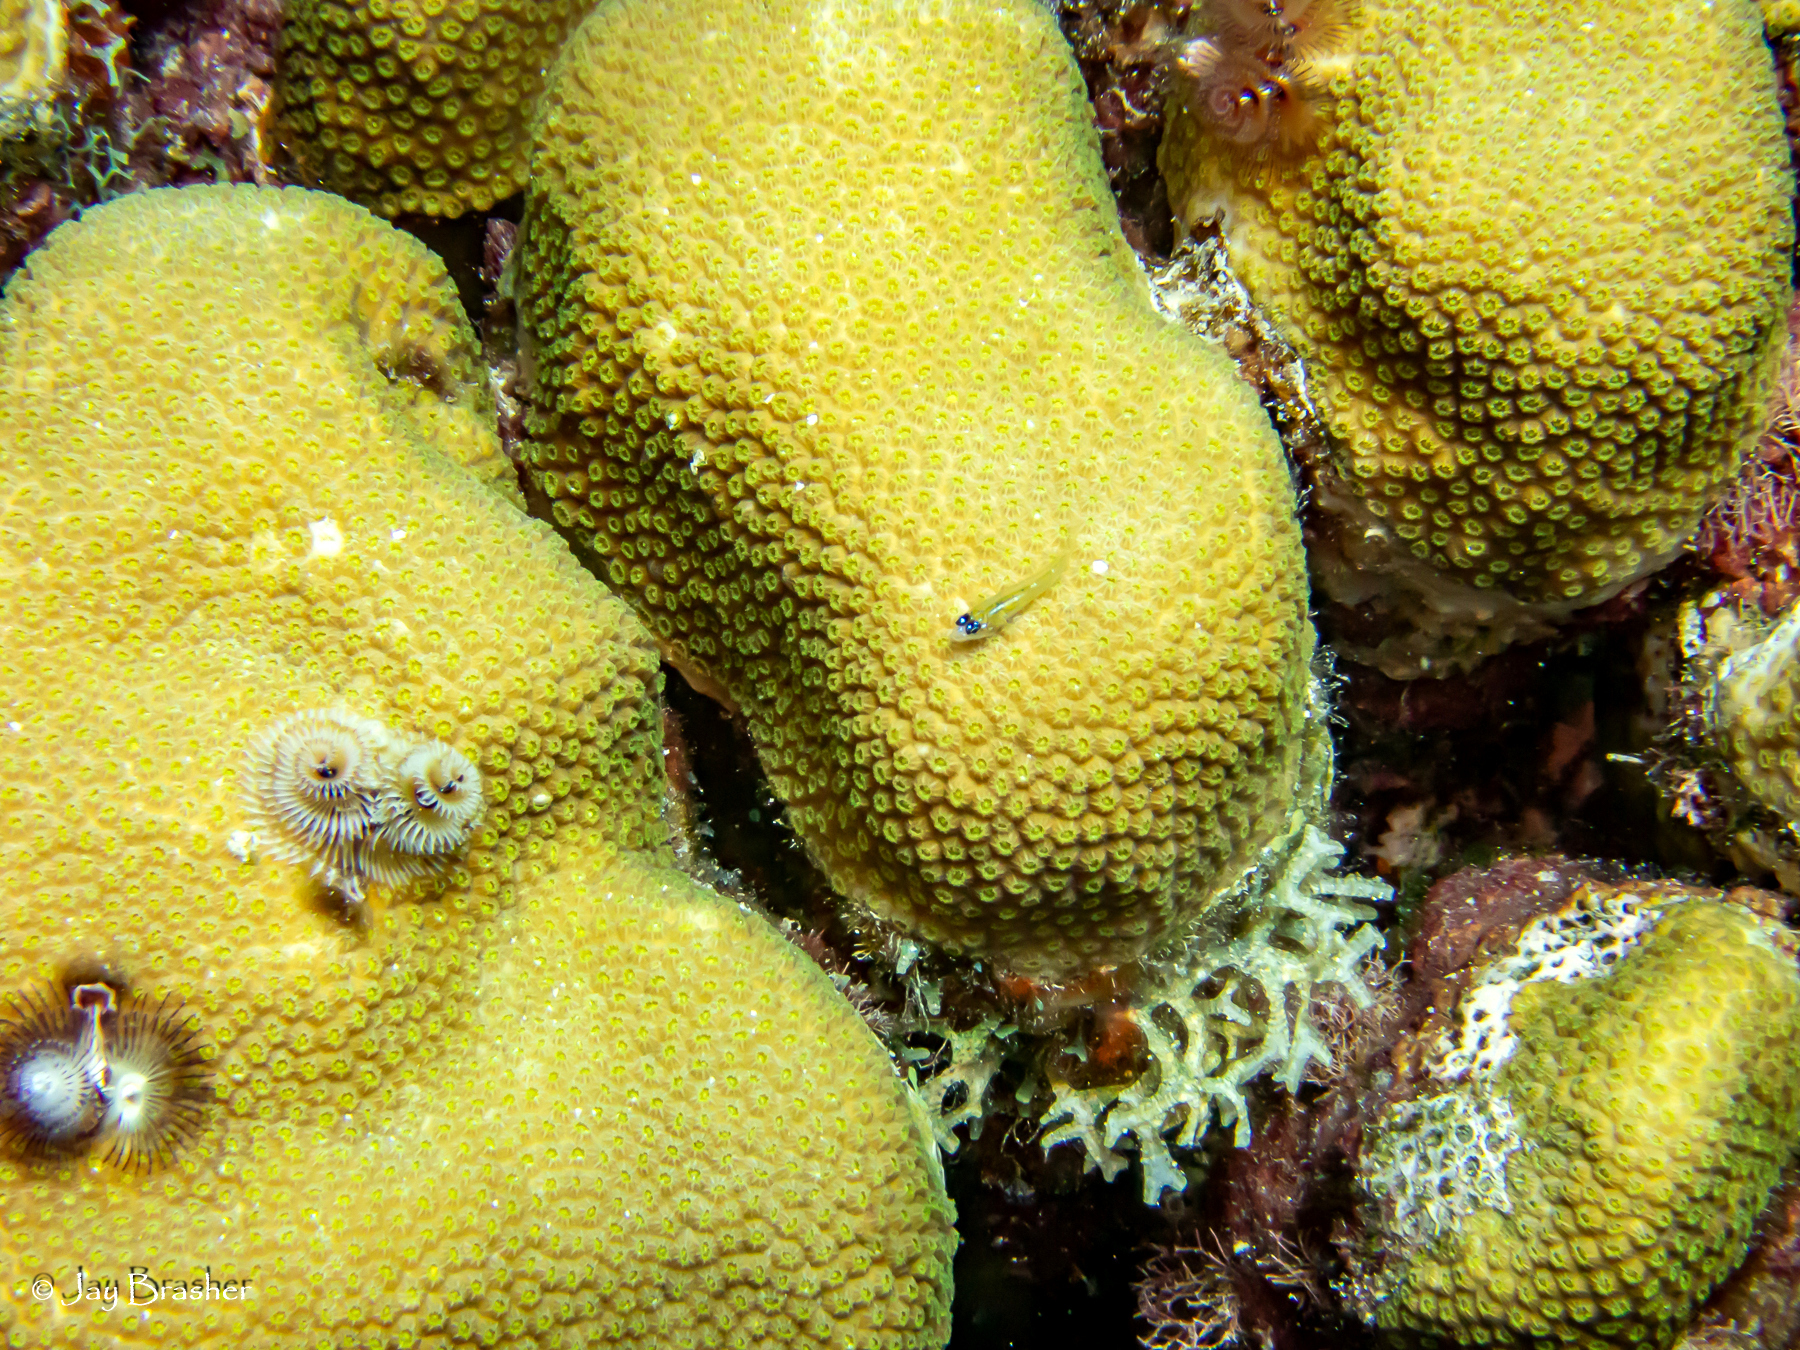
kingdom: Animalia
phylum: Chordata
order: Perciformes
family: Gobiidae
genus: Coryphopterus
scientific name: Coryphopterus lipernes
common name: Peppermint goby
